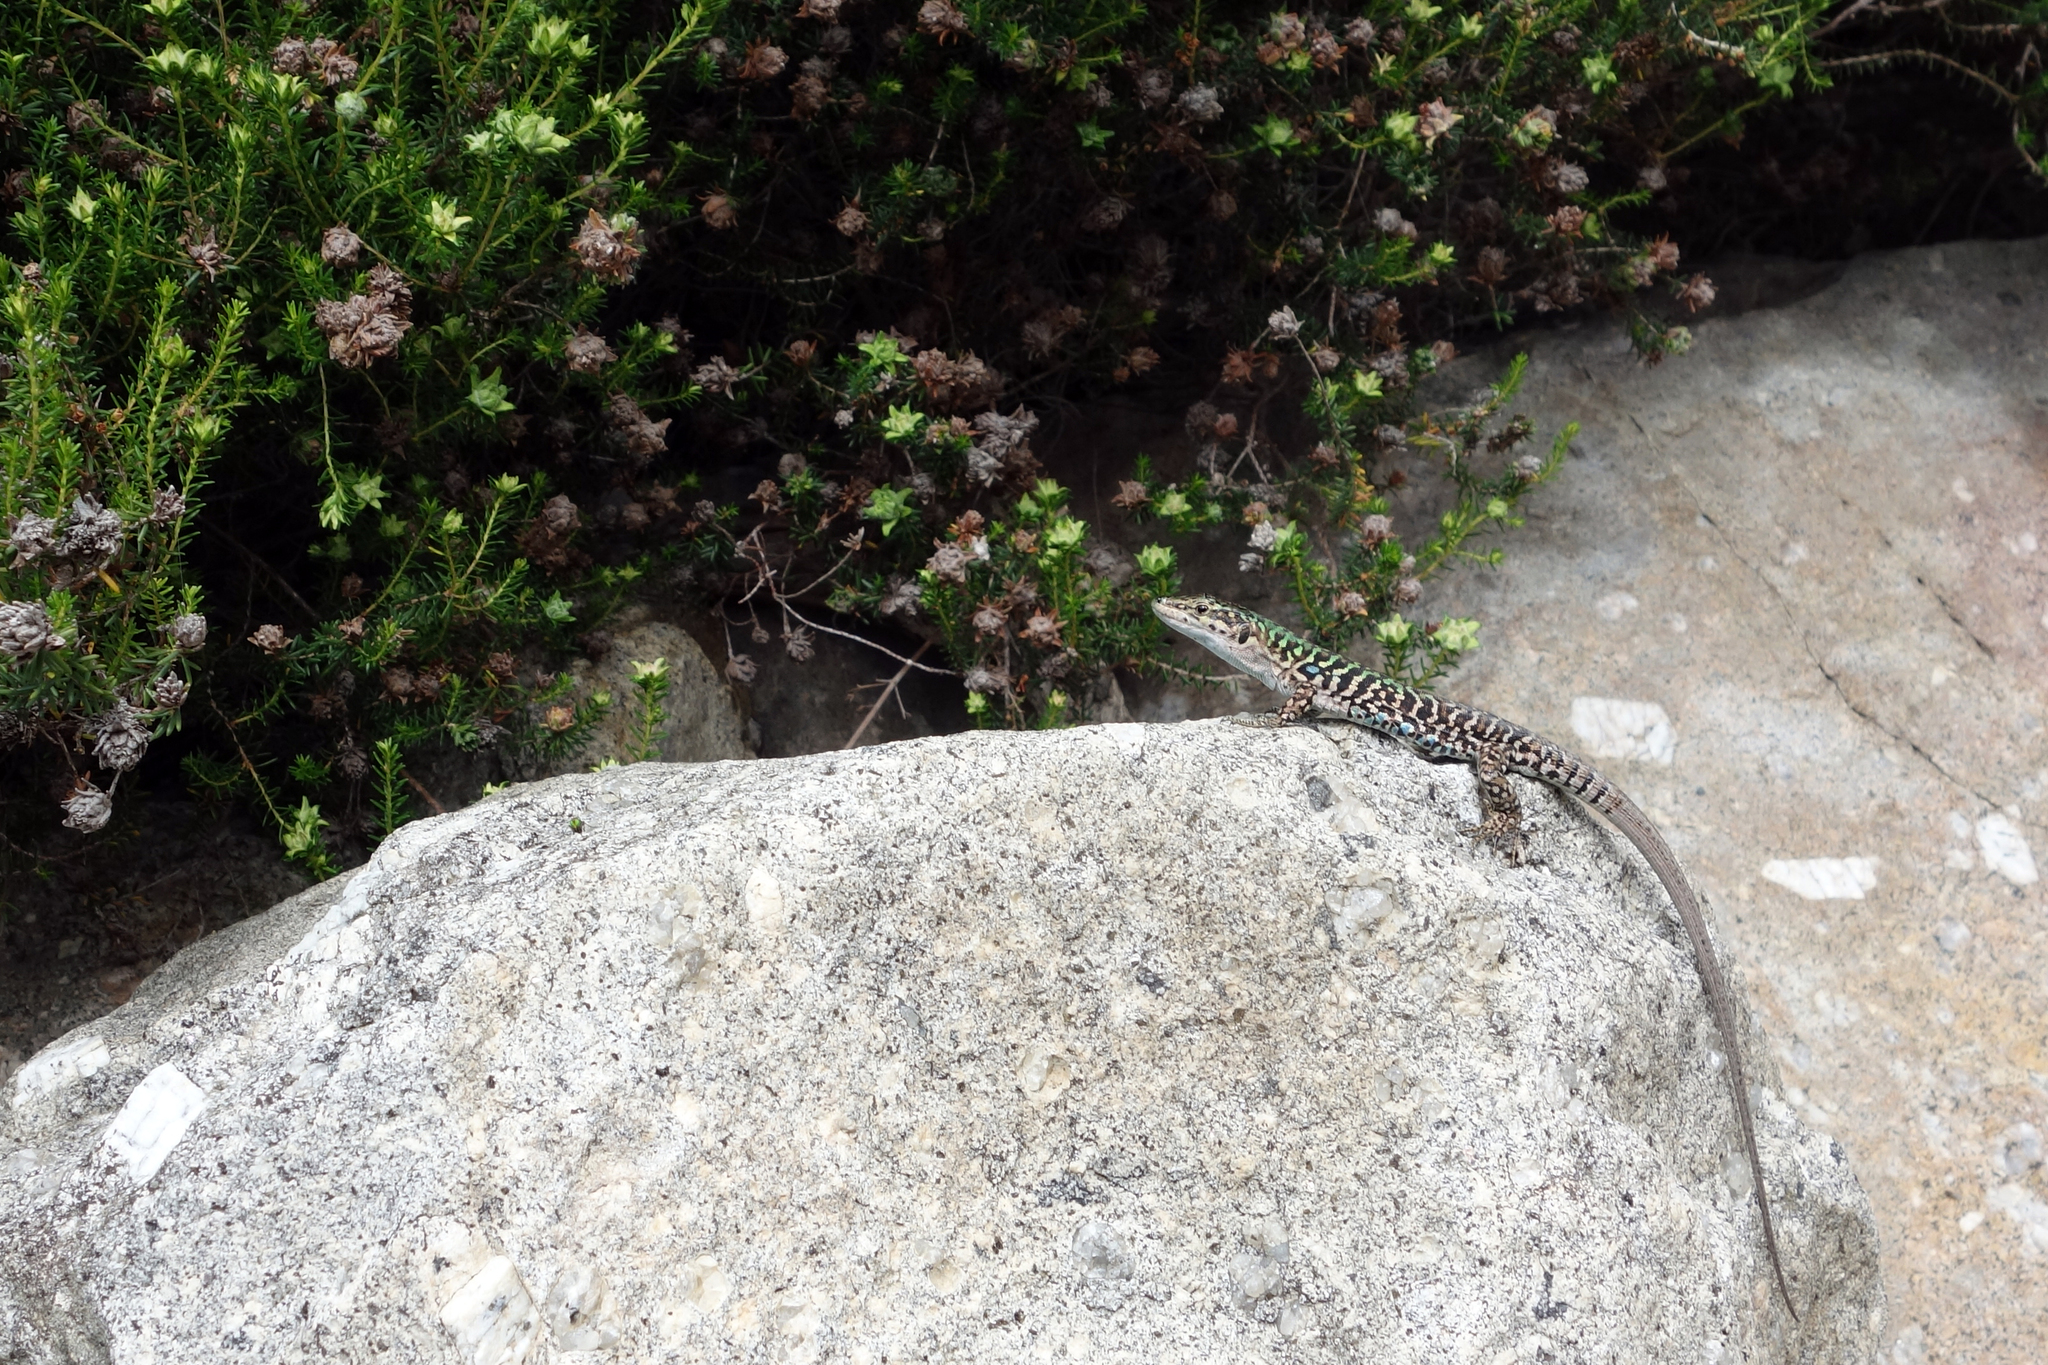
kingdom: Animalia
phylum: Chordata
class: Squamata
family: Lacertidae
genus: Podarcis
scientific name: Podarcis siculus
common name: Italian wall lizard
